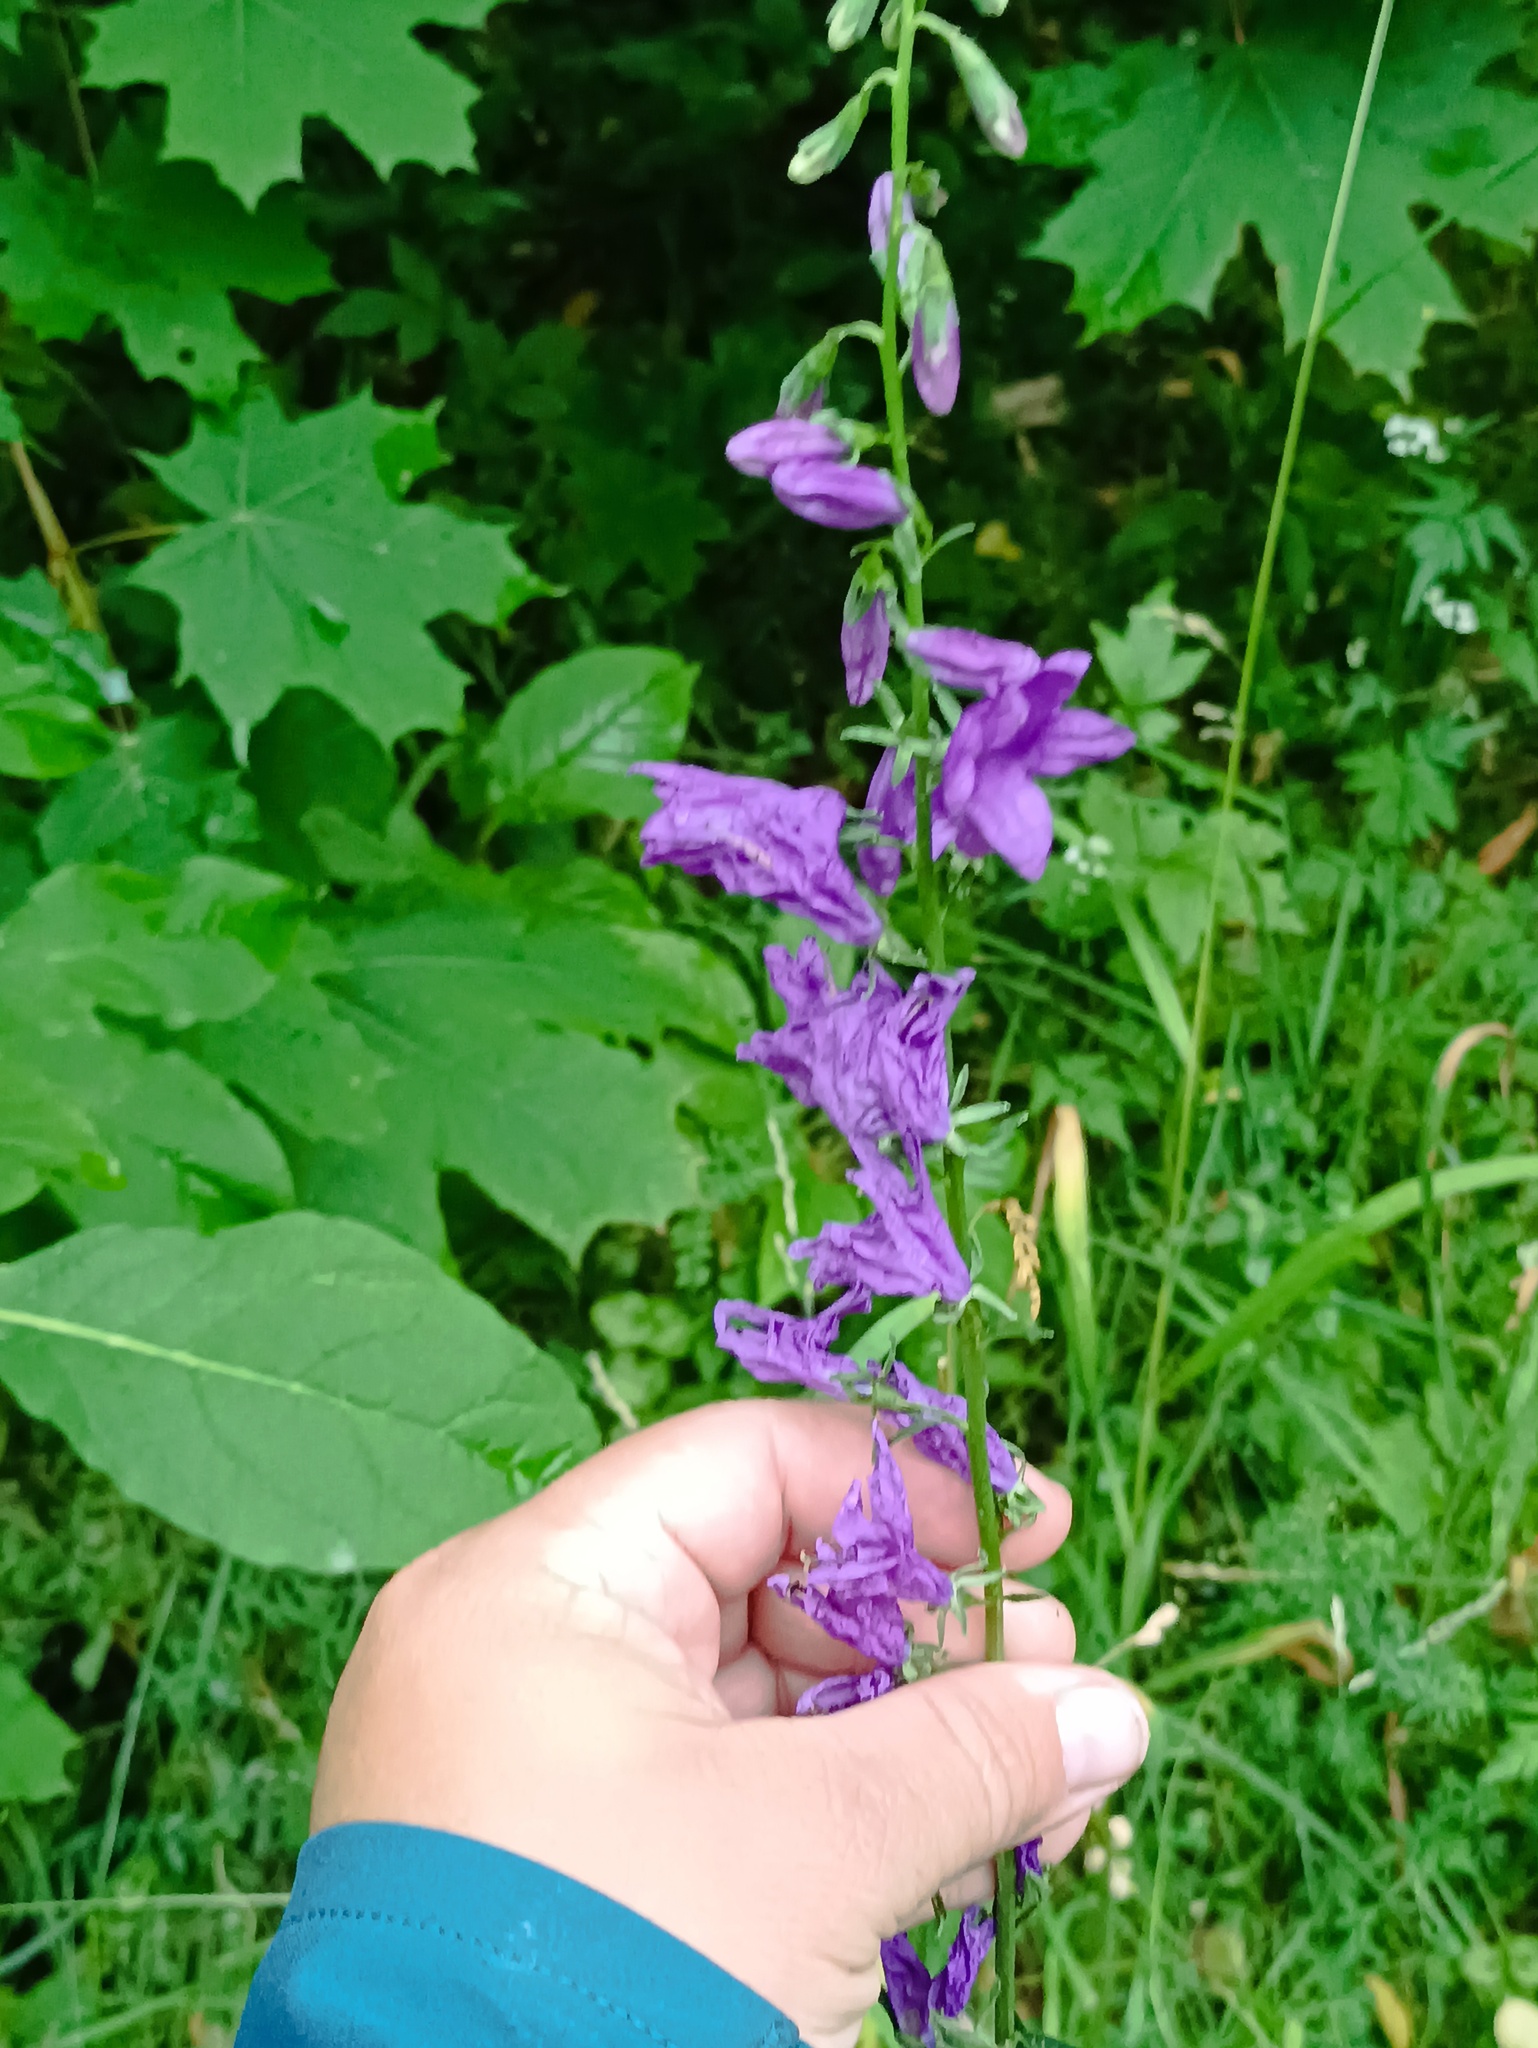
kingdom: Plantae
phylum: Tracheophyta
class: Magnoliopsida
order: Asterales
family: Campanulaceae
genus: Campanula
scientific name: Campanula rapunculoides
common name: Creeping bellflower
